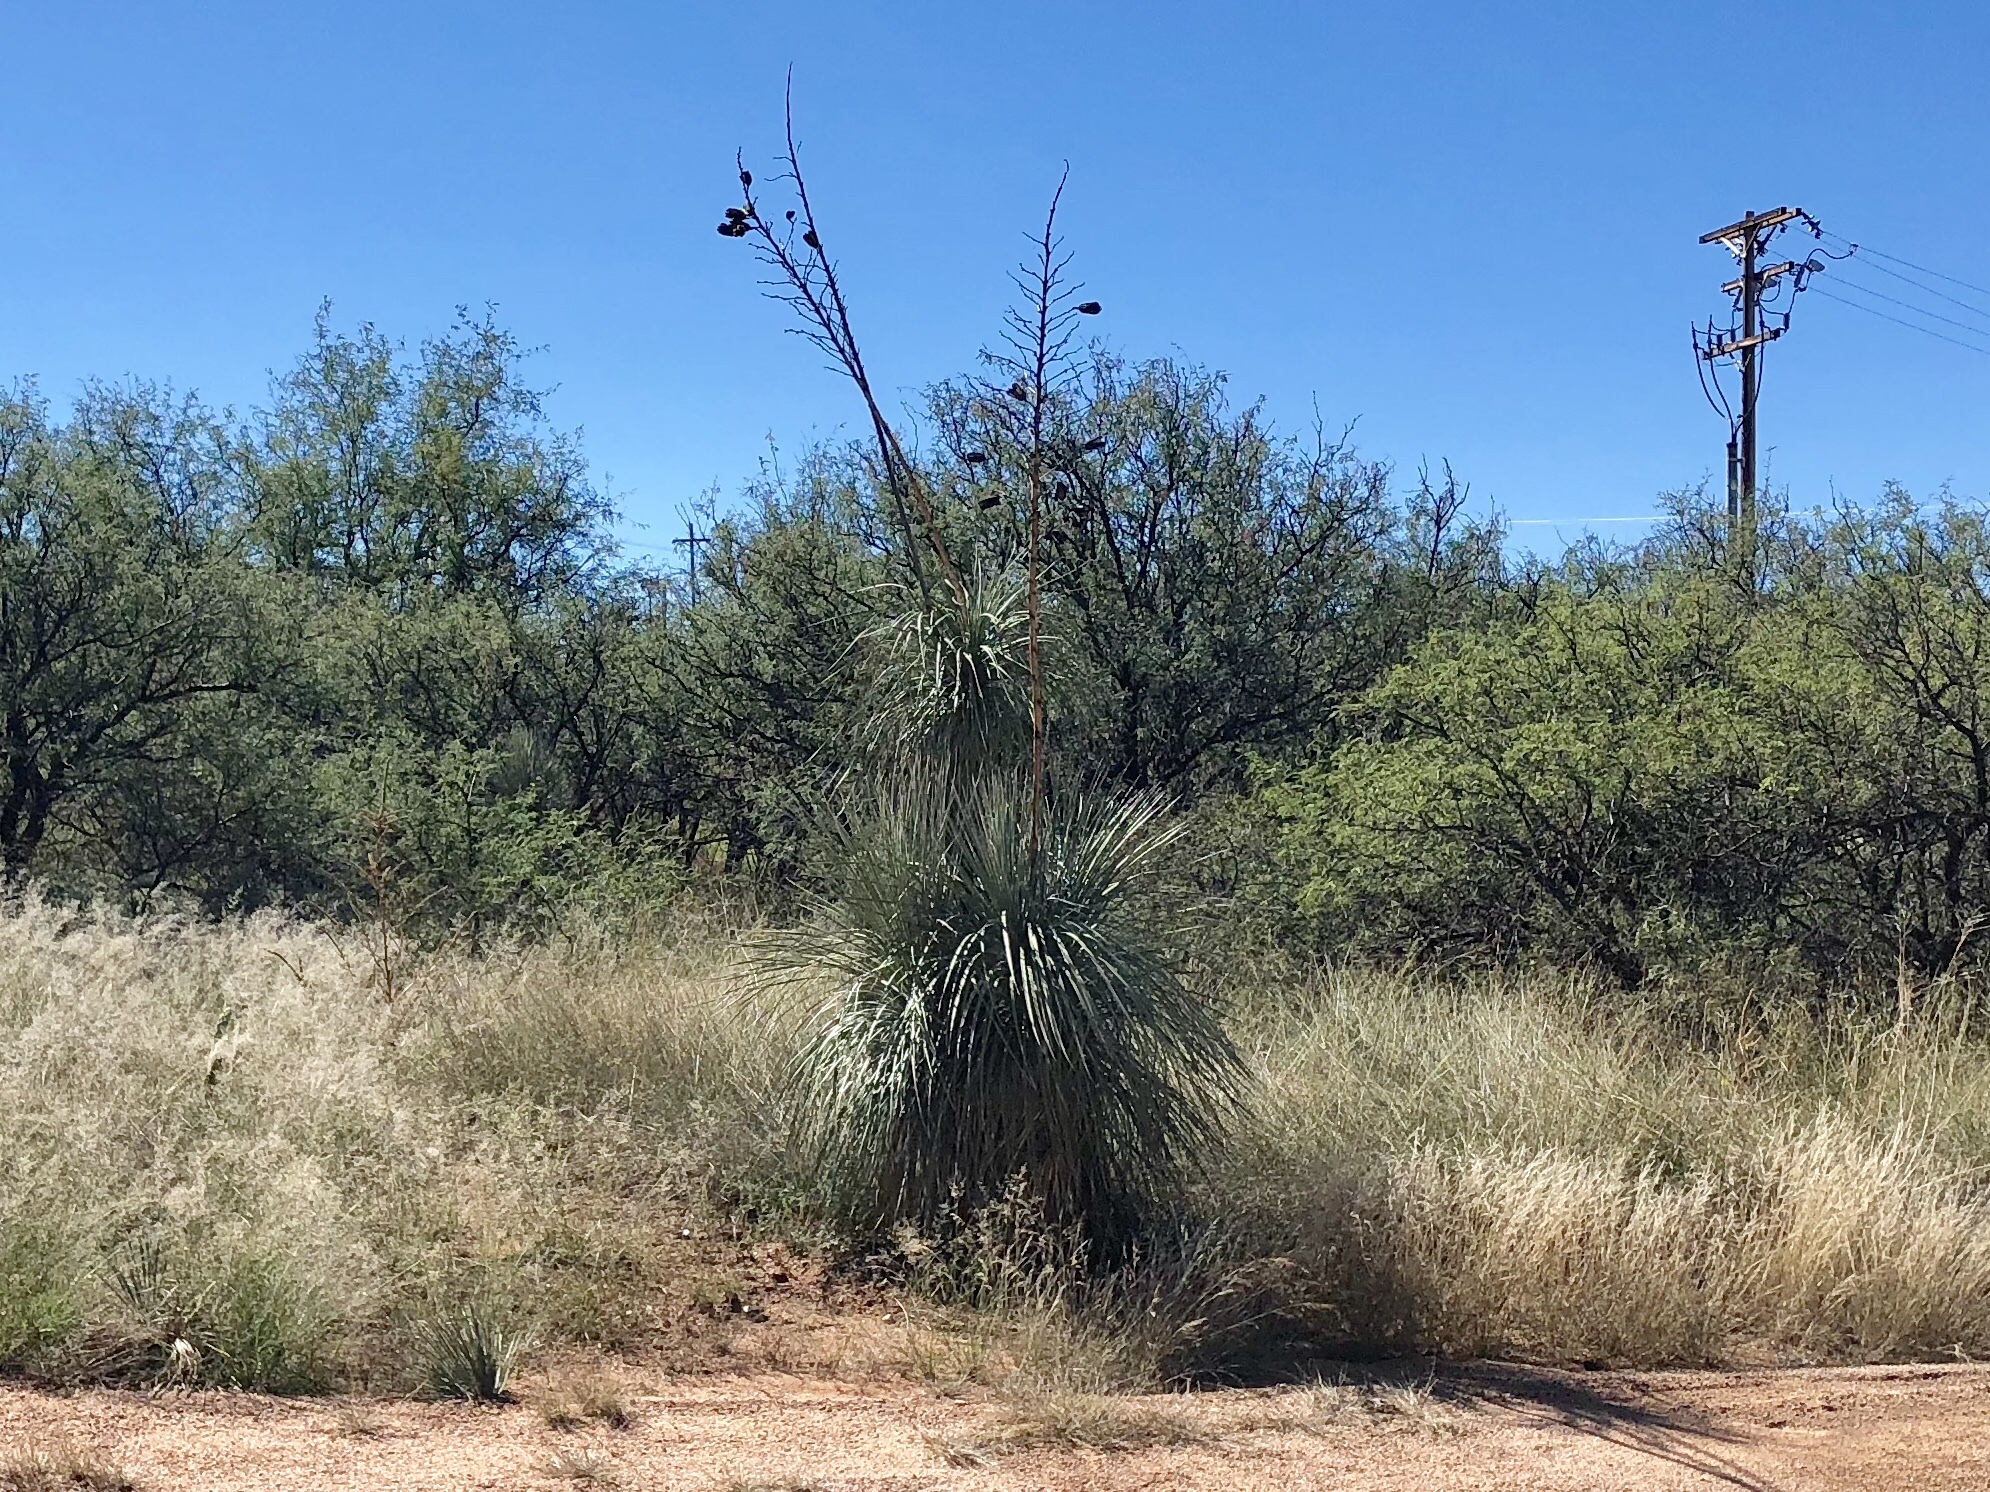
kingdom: Plantae
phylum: Tracheophyta
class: Liliopsida
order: Asparagales
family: Asparagaceae
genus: Yucca
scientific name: Yucca elata
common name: Palmella
